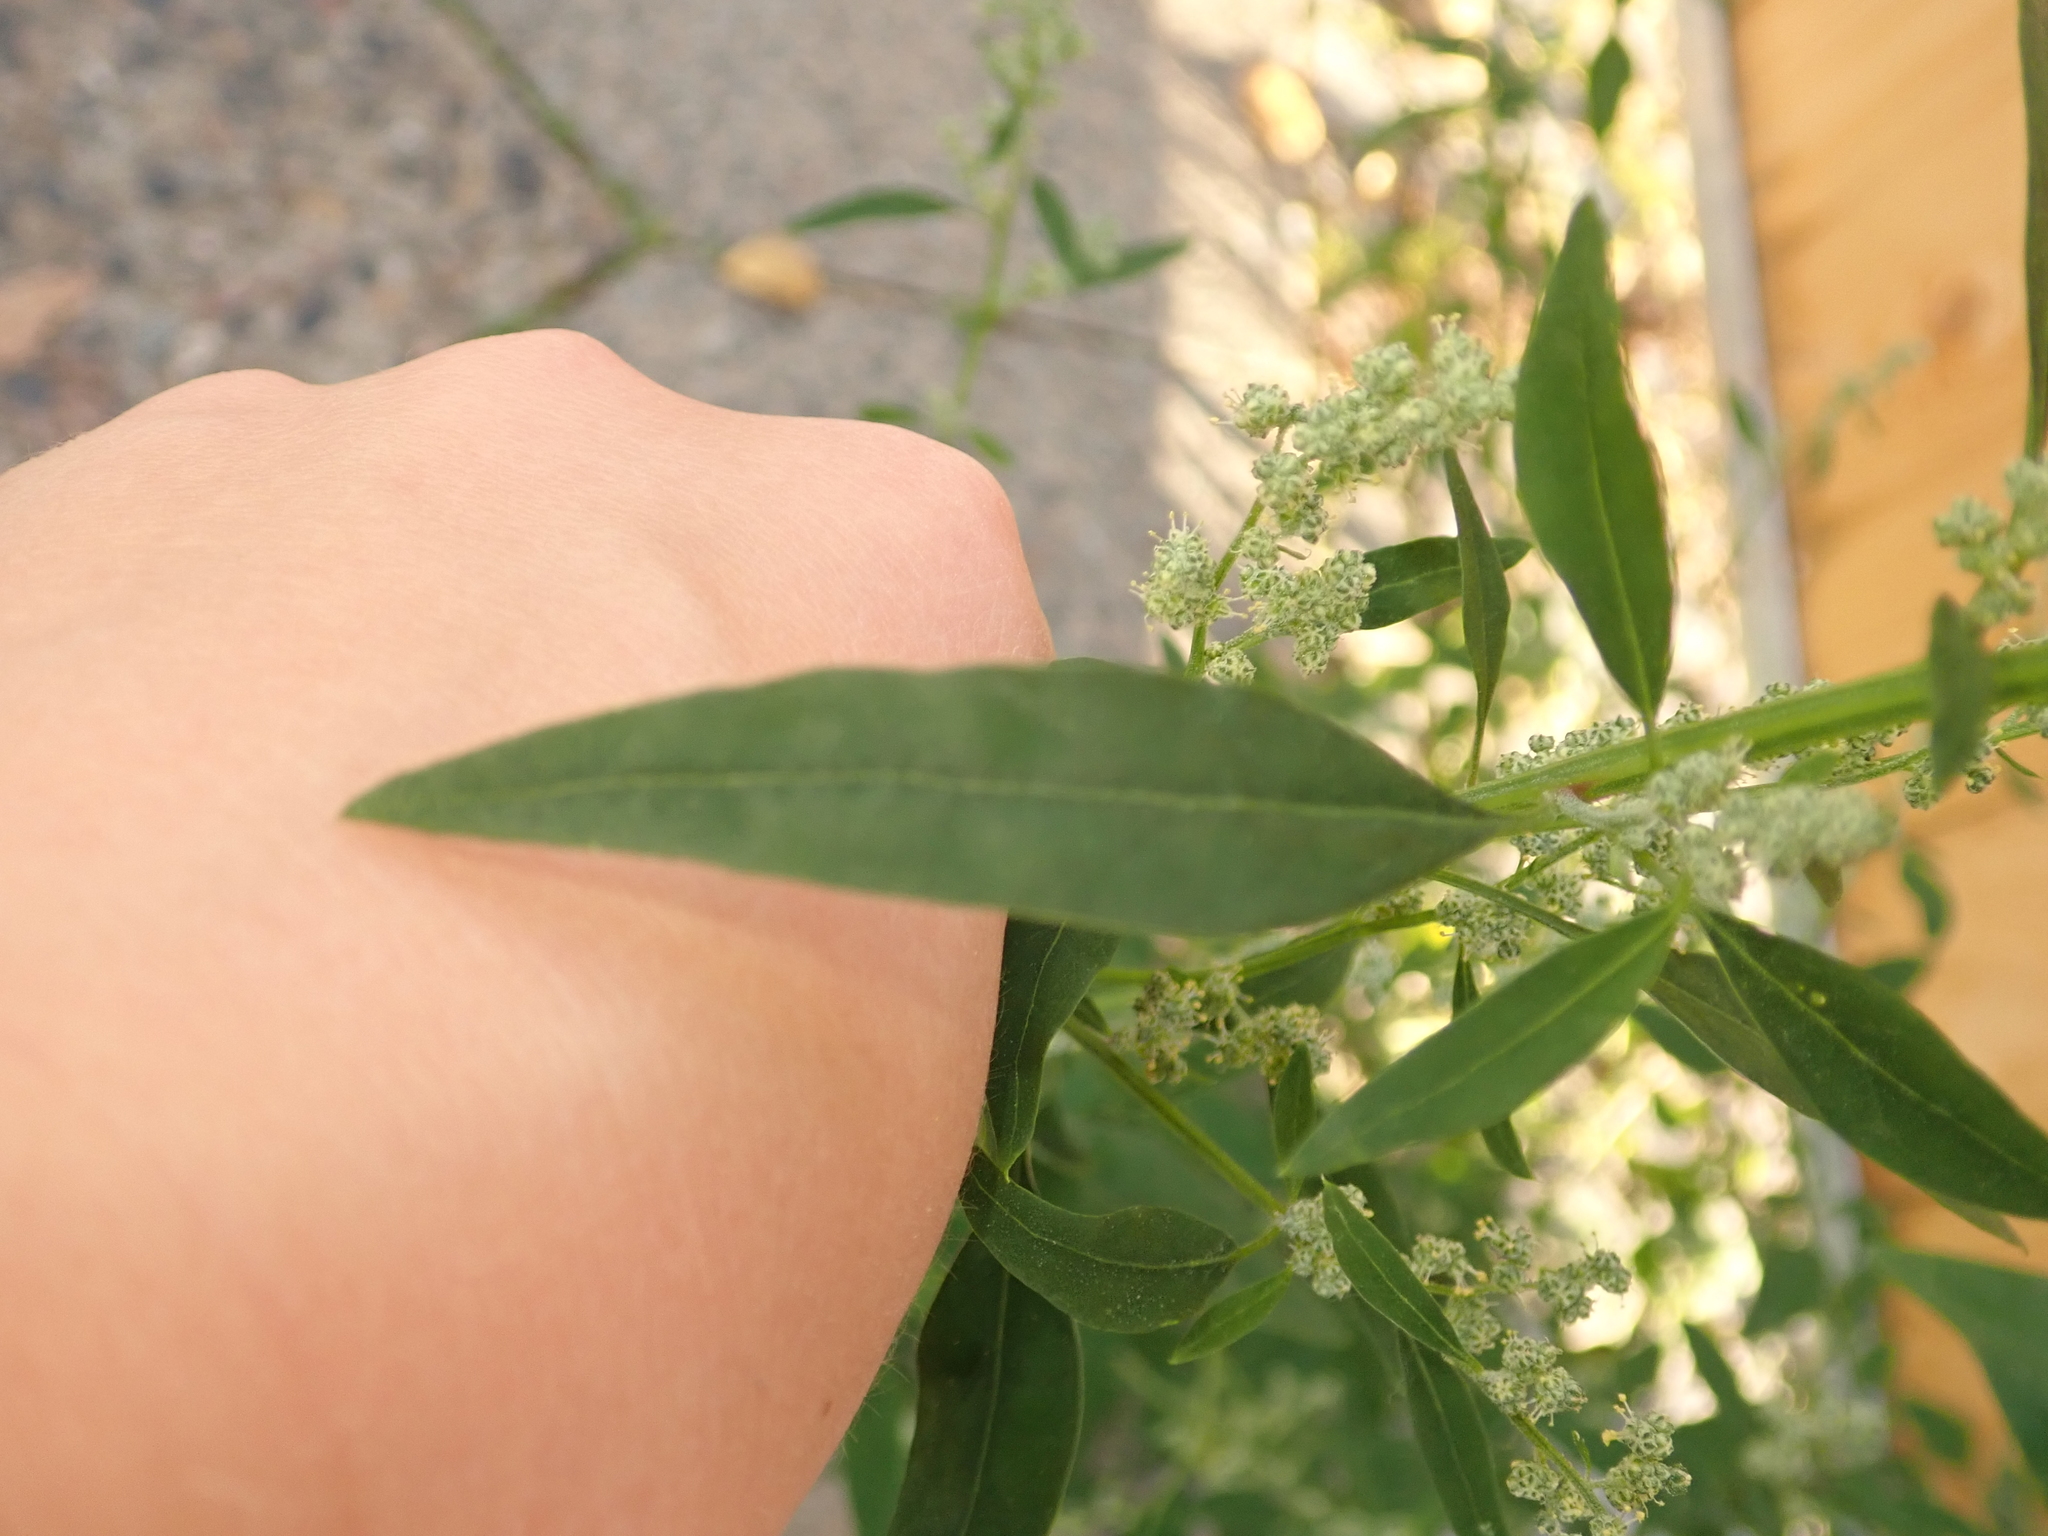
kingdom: Plantae
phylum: Tracheophyta
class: Magnoliopsida
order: Caryophyllales
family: Amaranthaceae
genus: Chenopodium
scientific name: Chenopodium album
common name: Fat-hen
